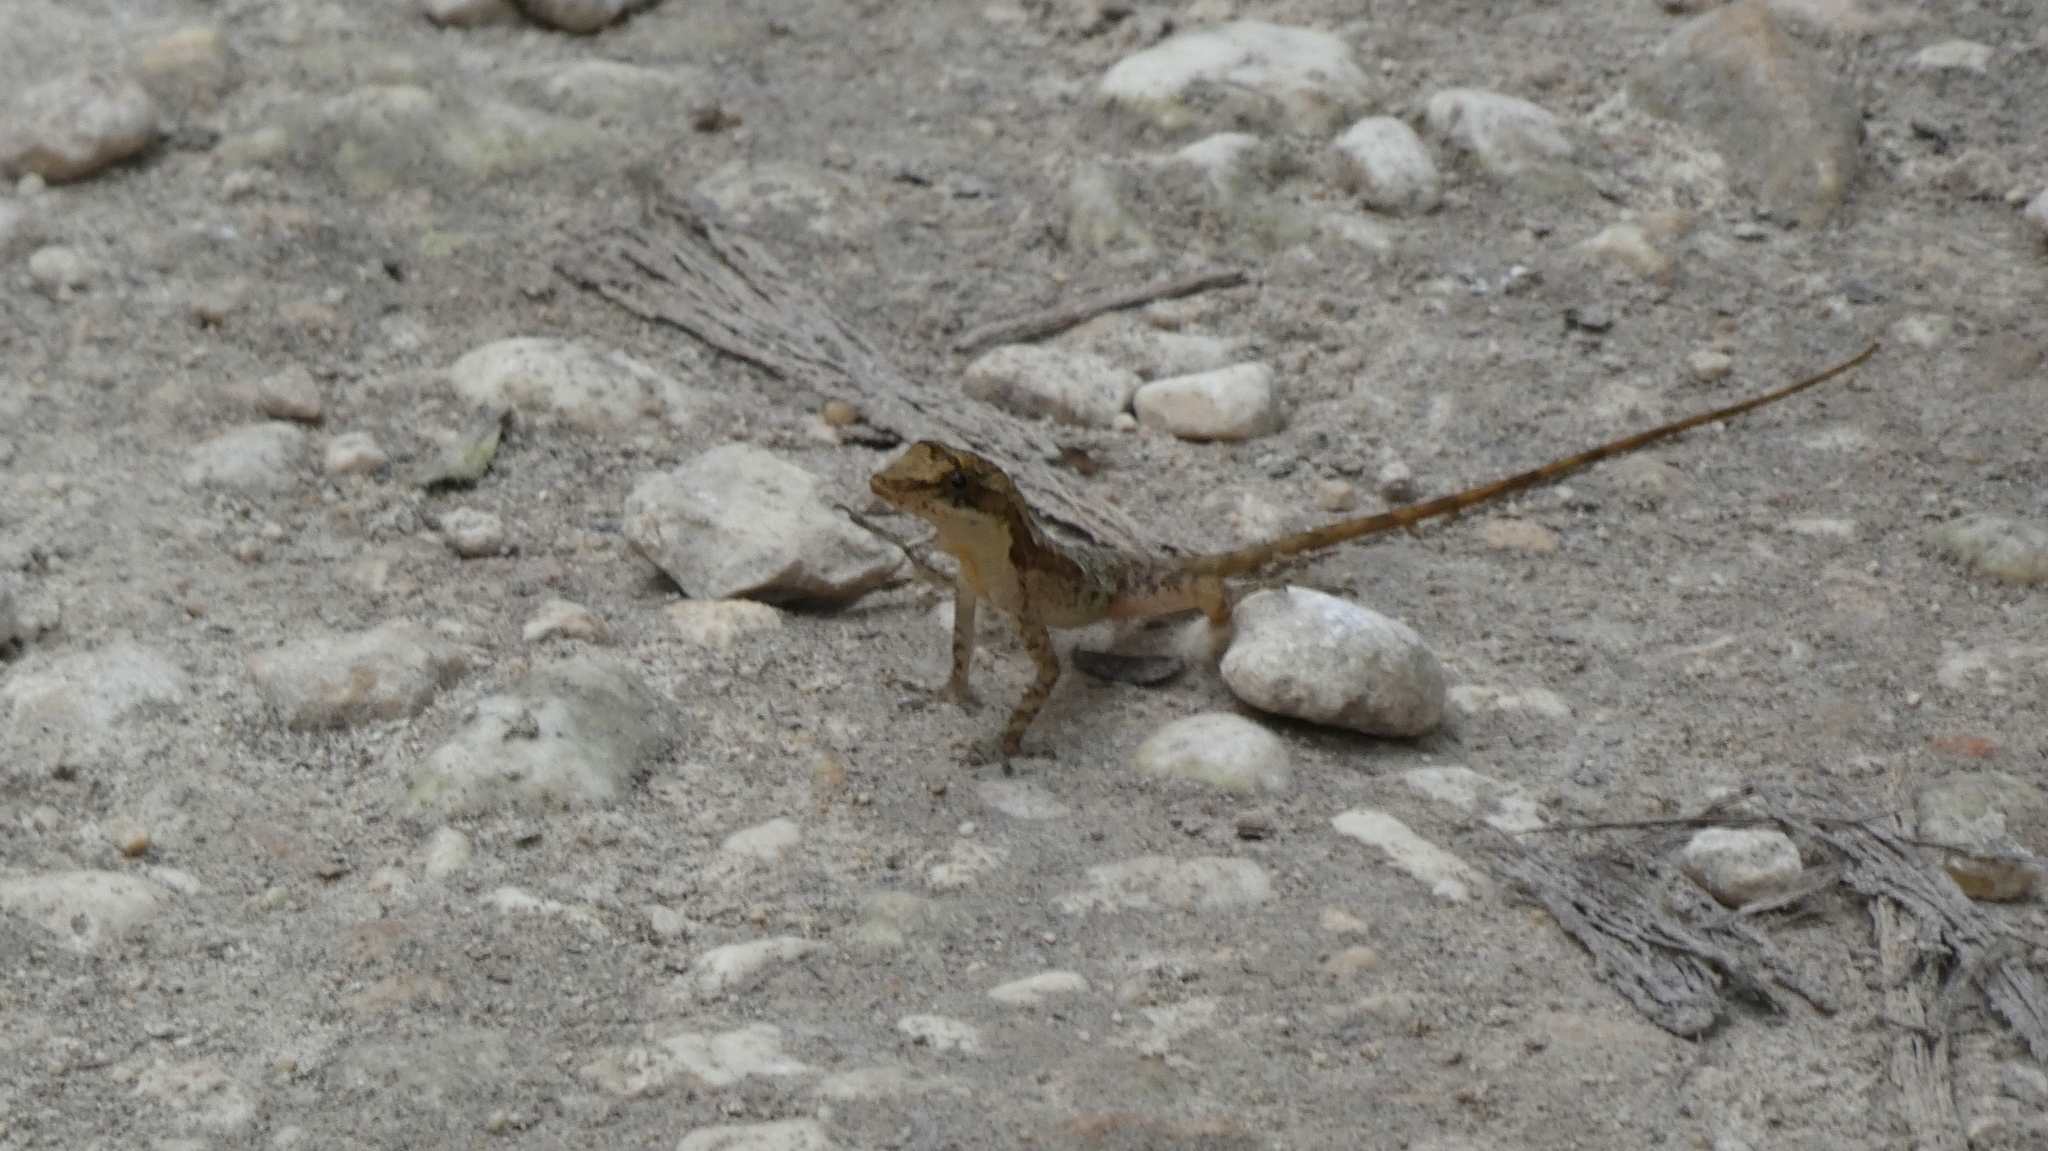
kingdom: Animalia
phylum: Chordata
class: Squamata
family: Dactyloidae
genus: Anolis
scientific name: Anolis rodriguezii
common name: Middle american smooth anole
